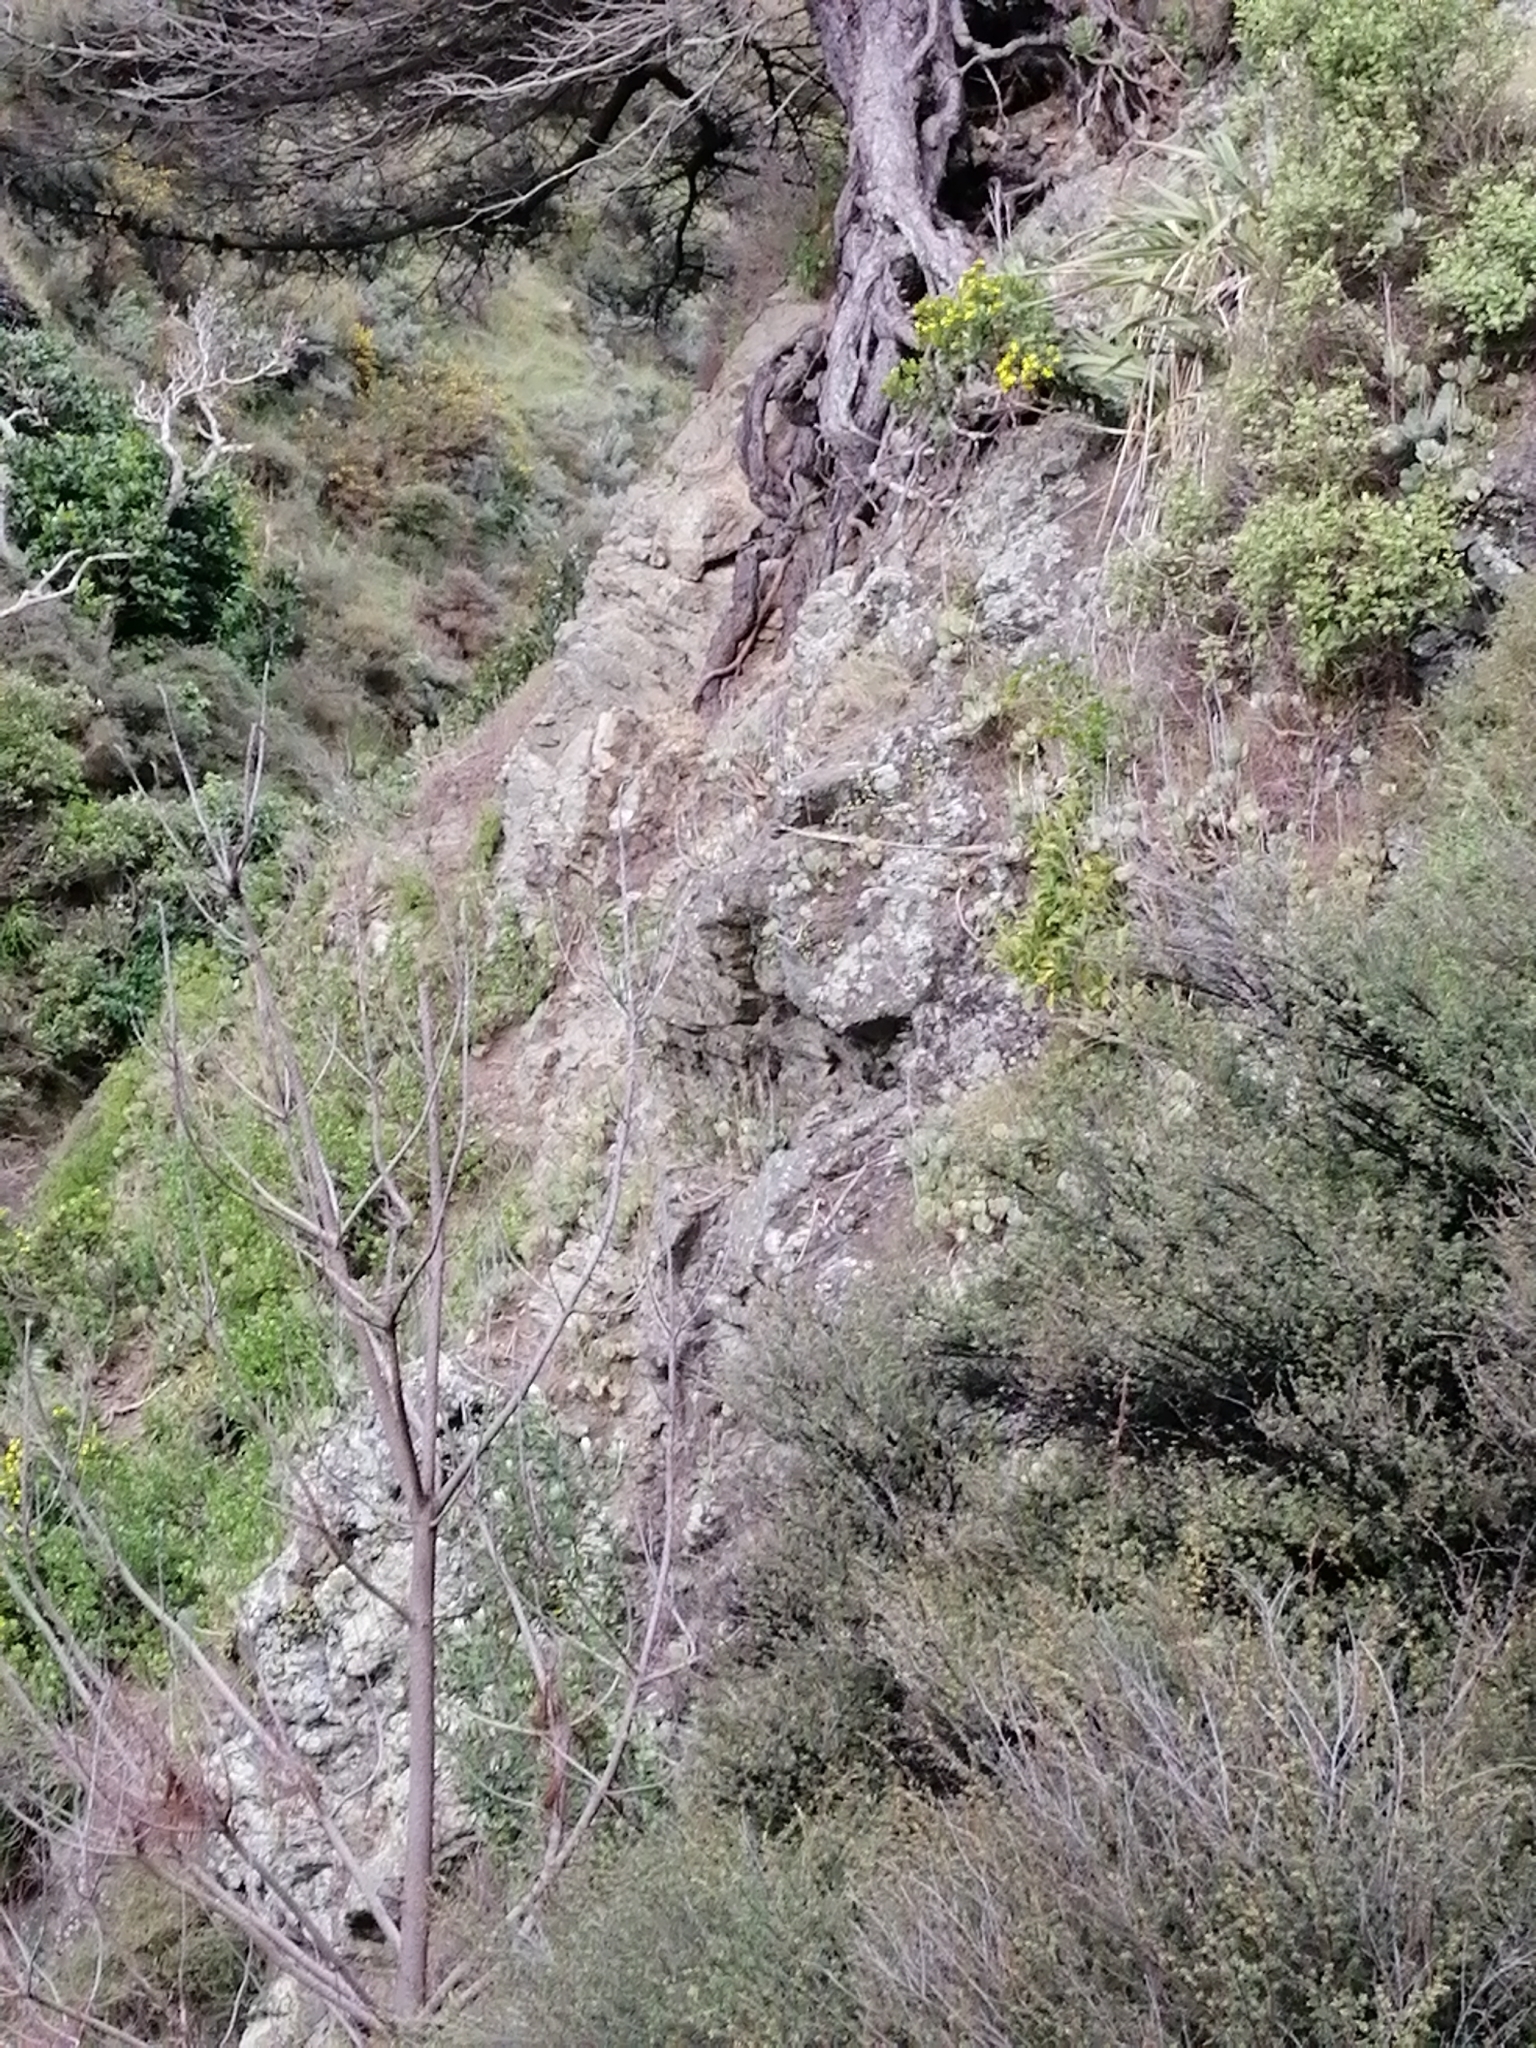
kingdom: Plantae
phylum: Tracheophyta
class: Magnoliopsida
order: Asterales
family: Asteraceae
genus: Osteospermum
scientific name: Osteospermum moniliferum
